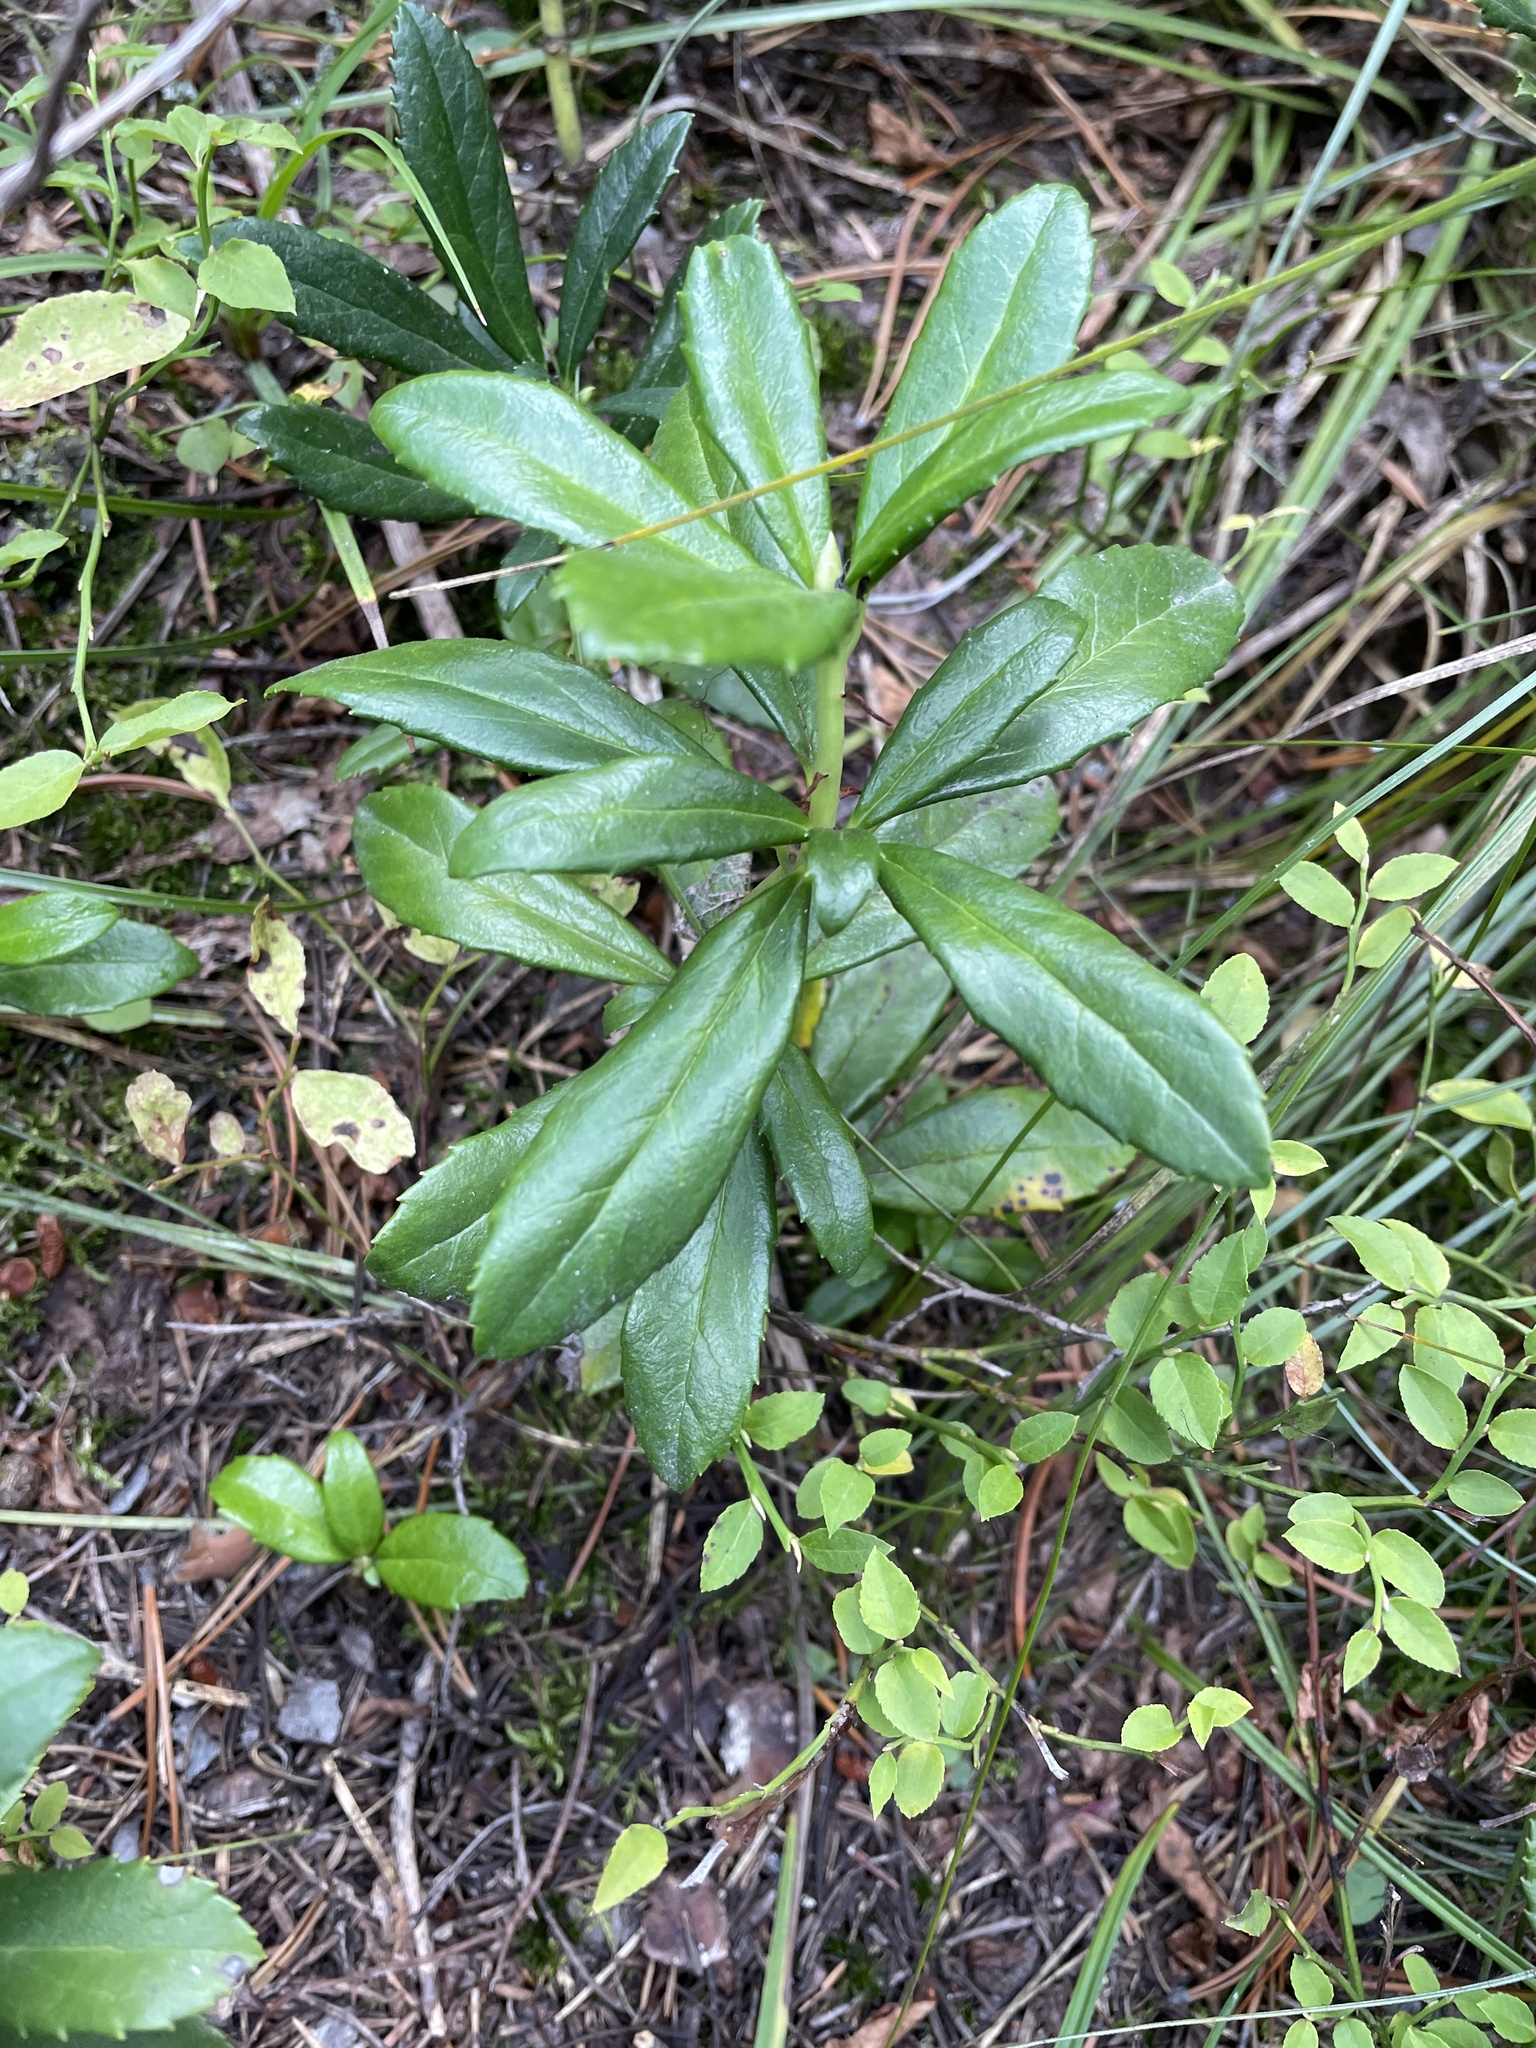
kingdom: Plantae
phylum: Tracheophyta
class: Magnoliopsida
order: Ericales
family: Ericaceae
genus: Chimaphila
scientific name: Chimaphila umbellata
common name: Pipsissewa
